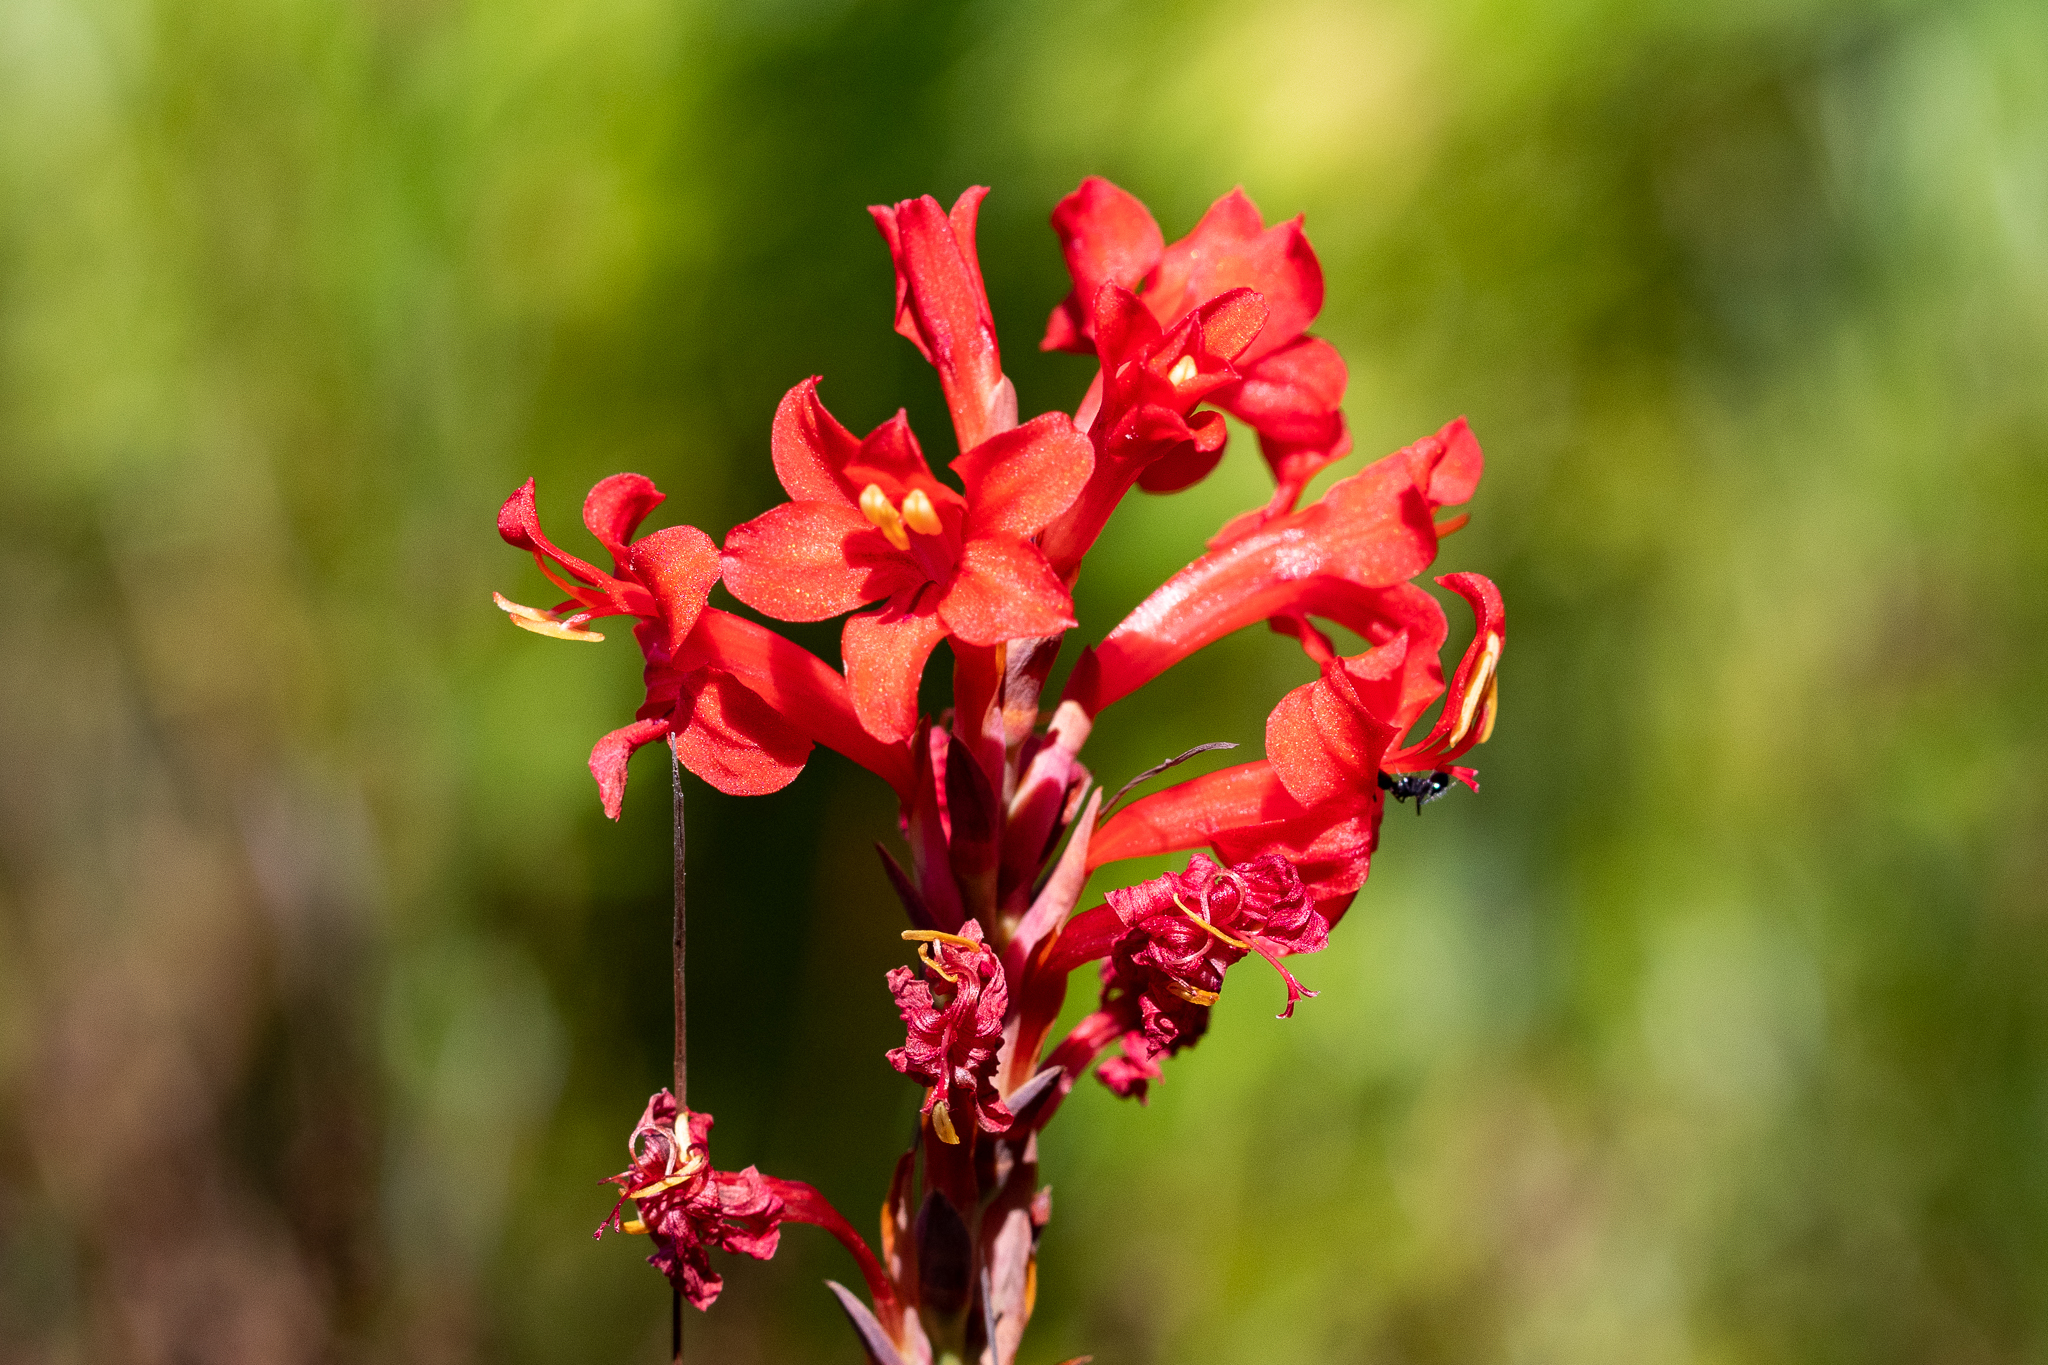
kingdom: Plantae
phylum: Tracheophyta
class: Liliopsida
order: Asparagales
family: Iridaceae
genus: Tritoniopsis
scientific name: Tritoniopsis triticea
